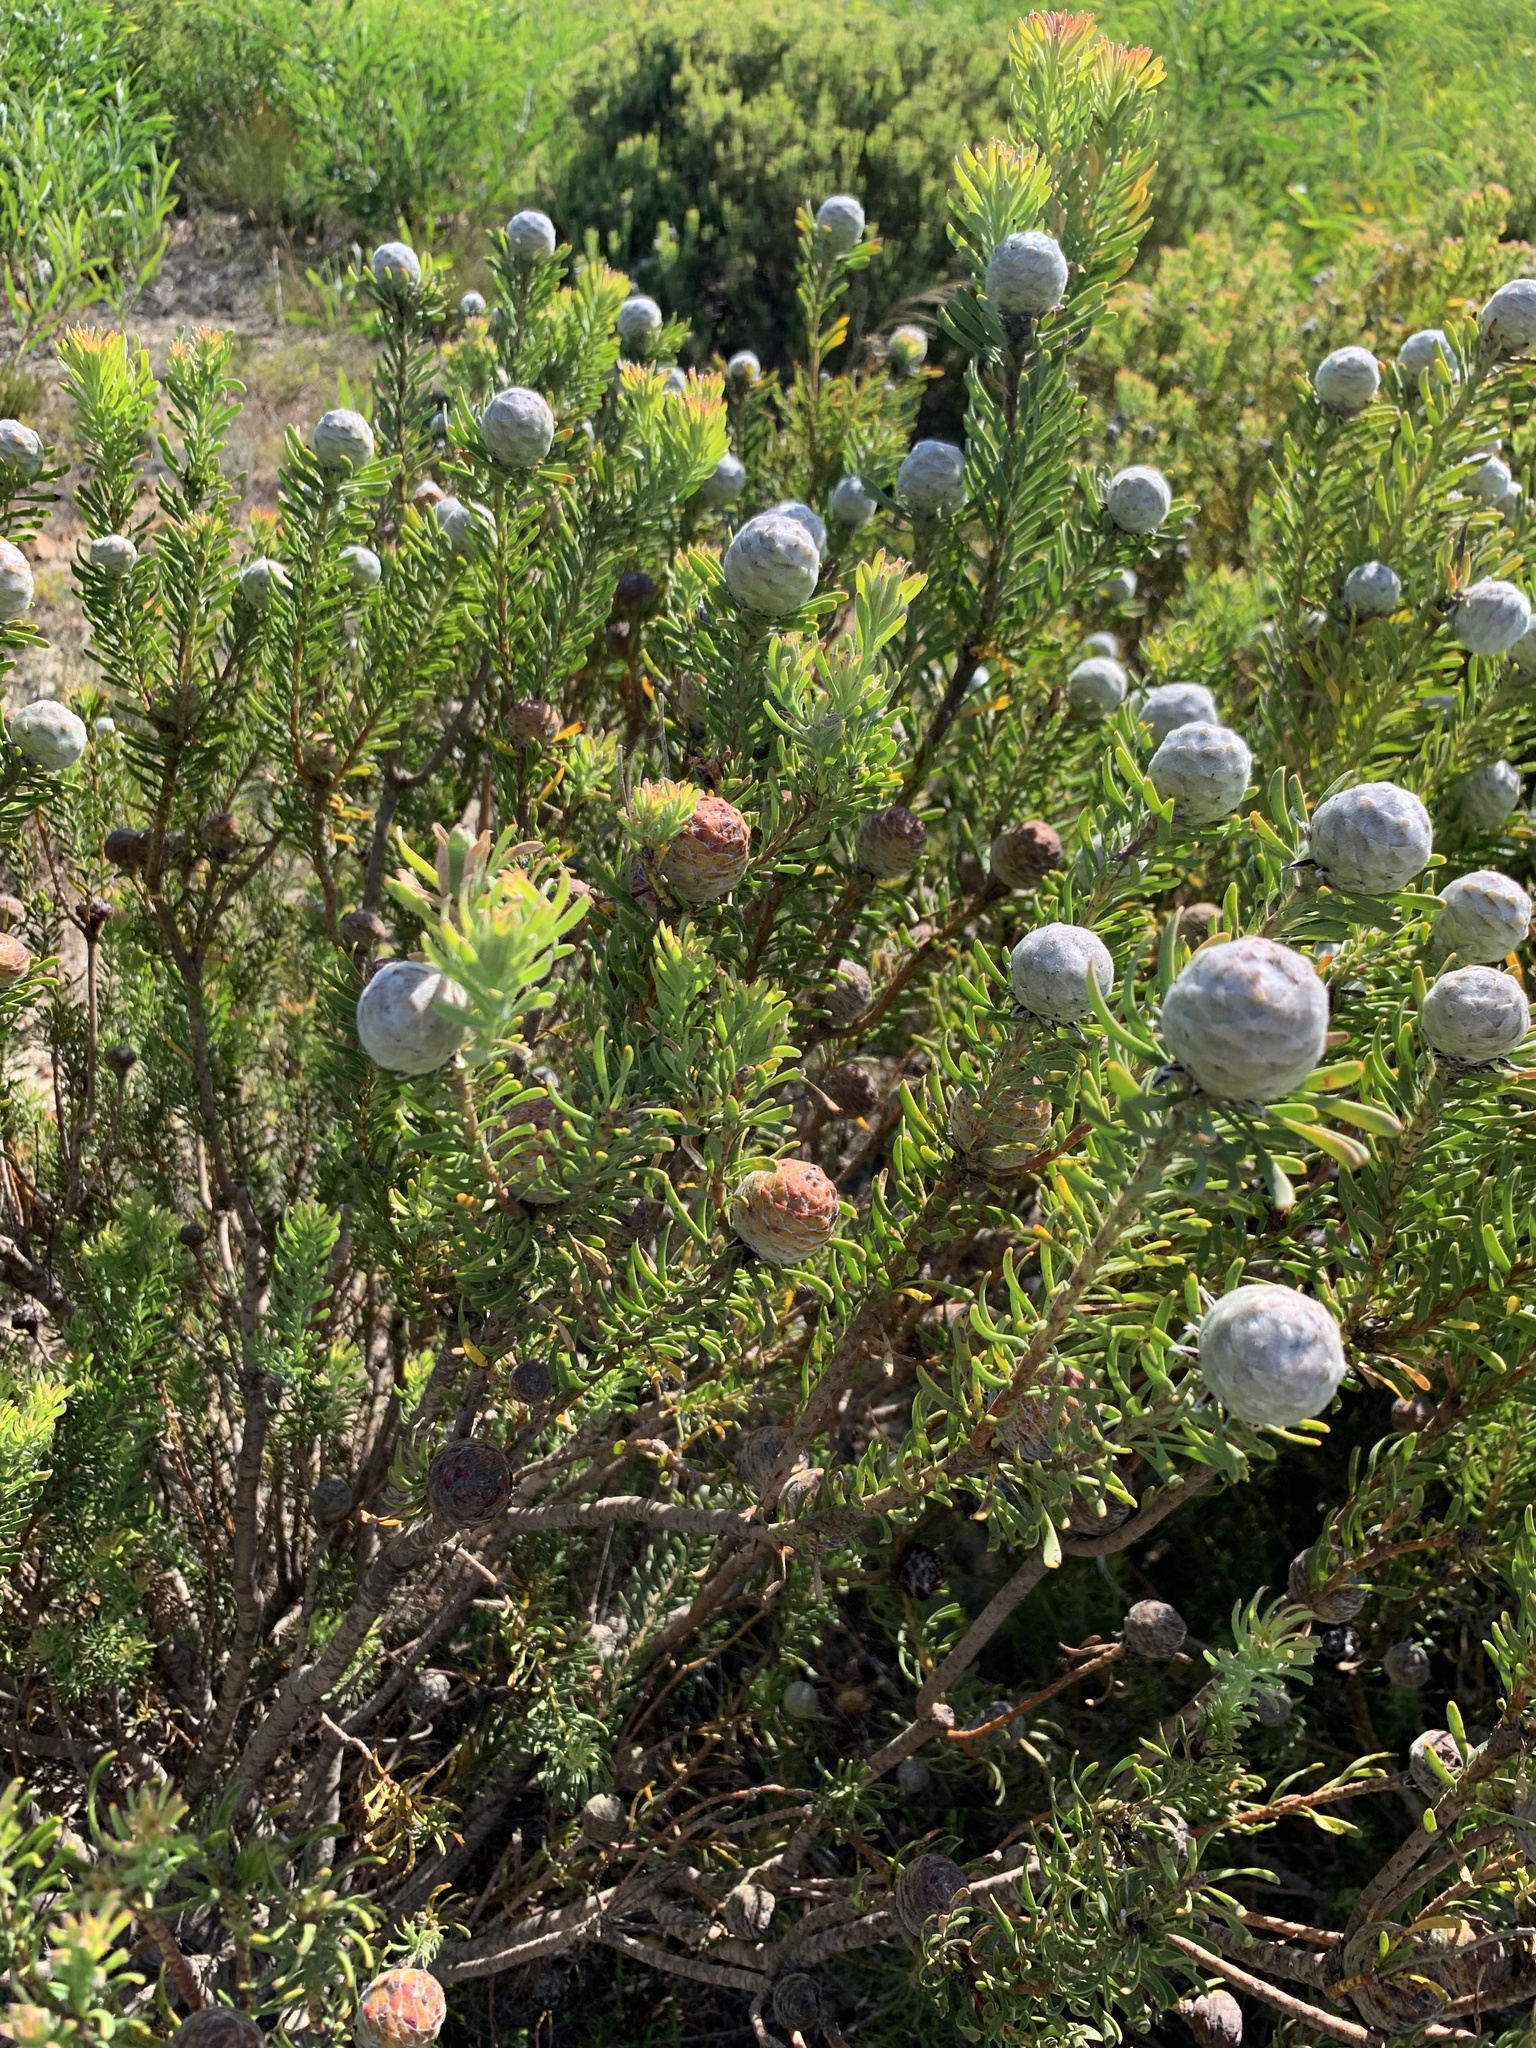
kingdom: Plantae
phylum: Tracheophyta
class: Magnoliopsida
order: Proteales
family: Proteaceae
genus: Leucadendron
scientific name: Leucadendron linifolium
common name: Line-leaf conebush
